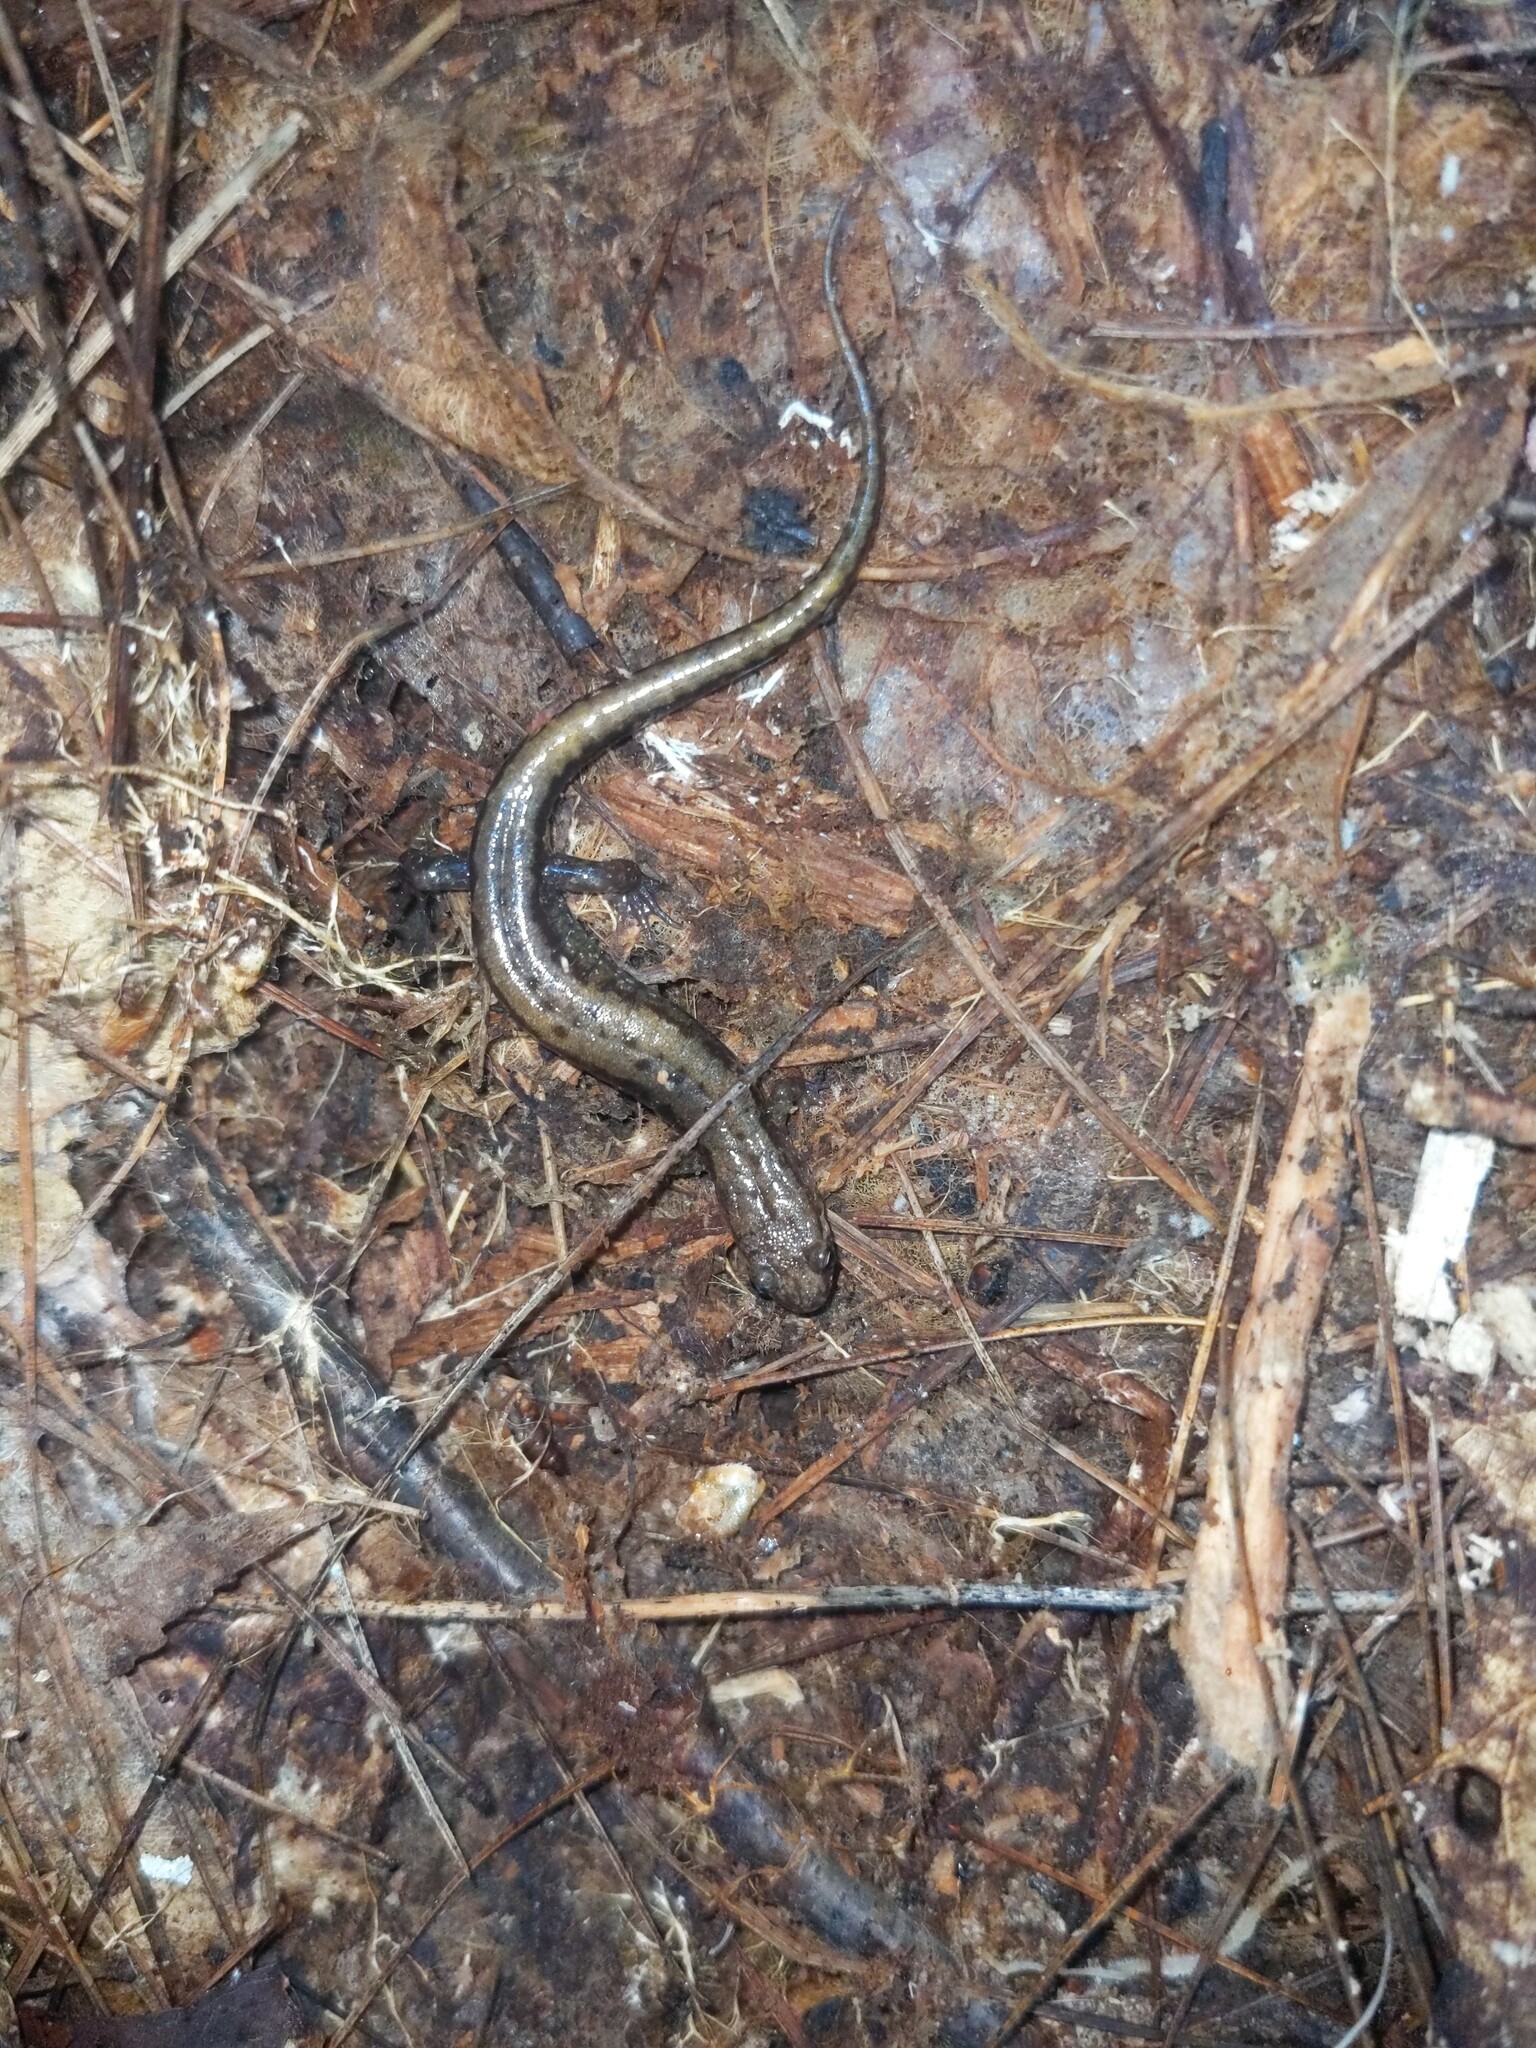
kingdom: Animalia
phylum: Chordata
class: Amphibia
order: Caudata
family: Plethodontidae
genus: Desmognathus
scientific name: Desmognathus ochrophaeus
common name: Allegheny mountain dusky salamander
